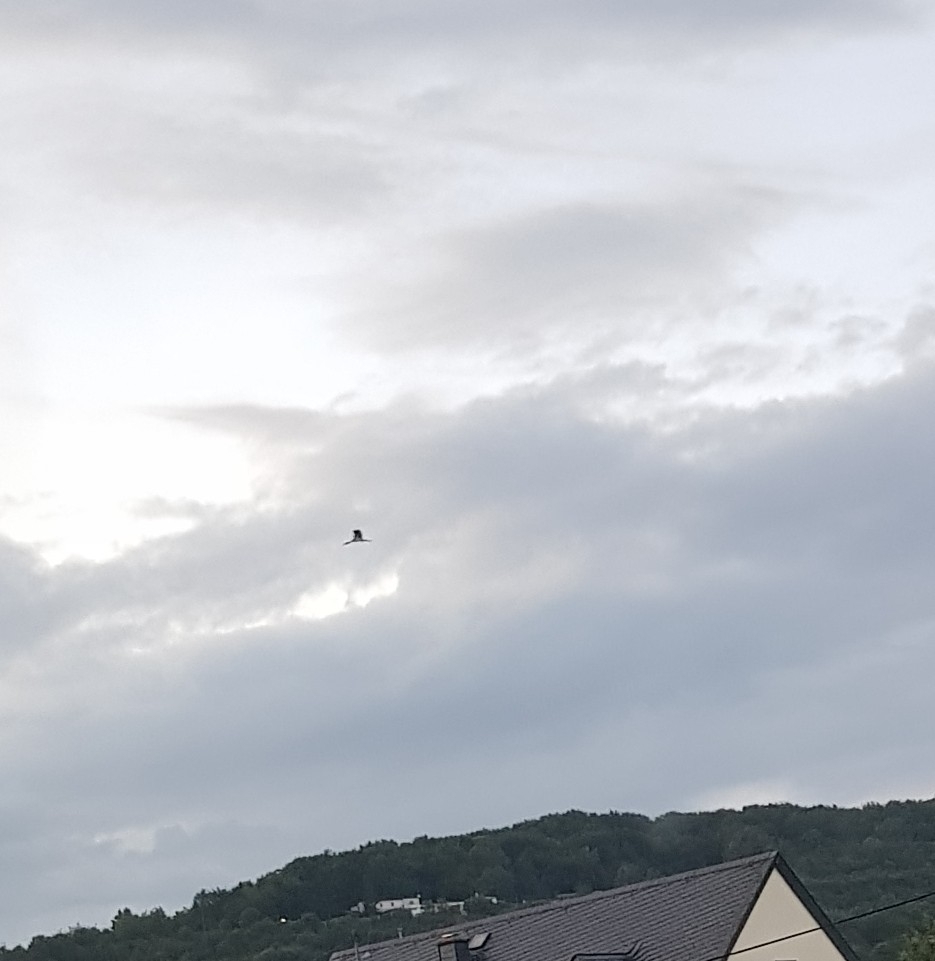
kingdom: Animalia
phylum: Chordata
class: Aves
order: Ciconiiformes
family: Ciconiidae
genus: Ciconia
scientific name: Ciconia nigra
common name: Black stork
